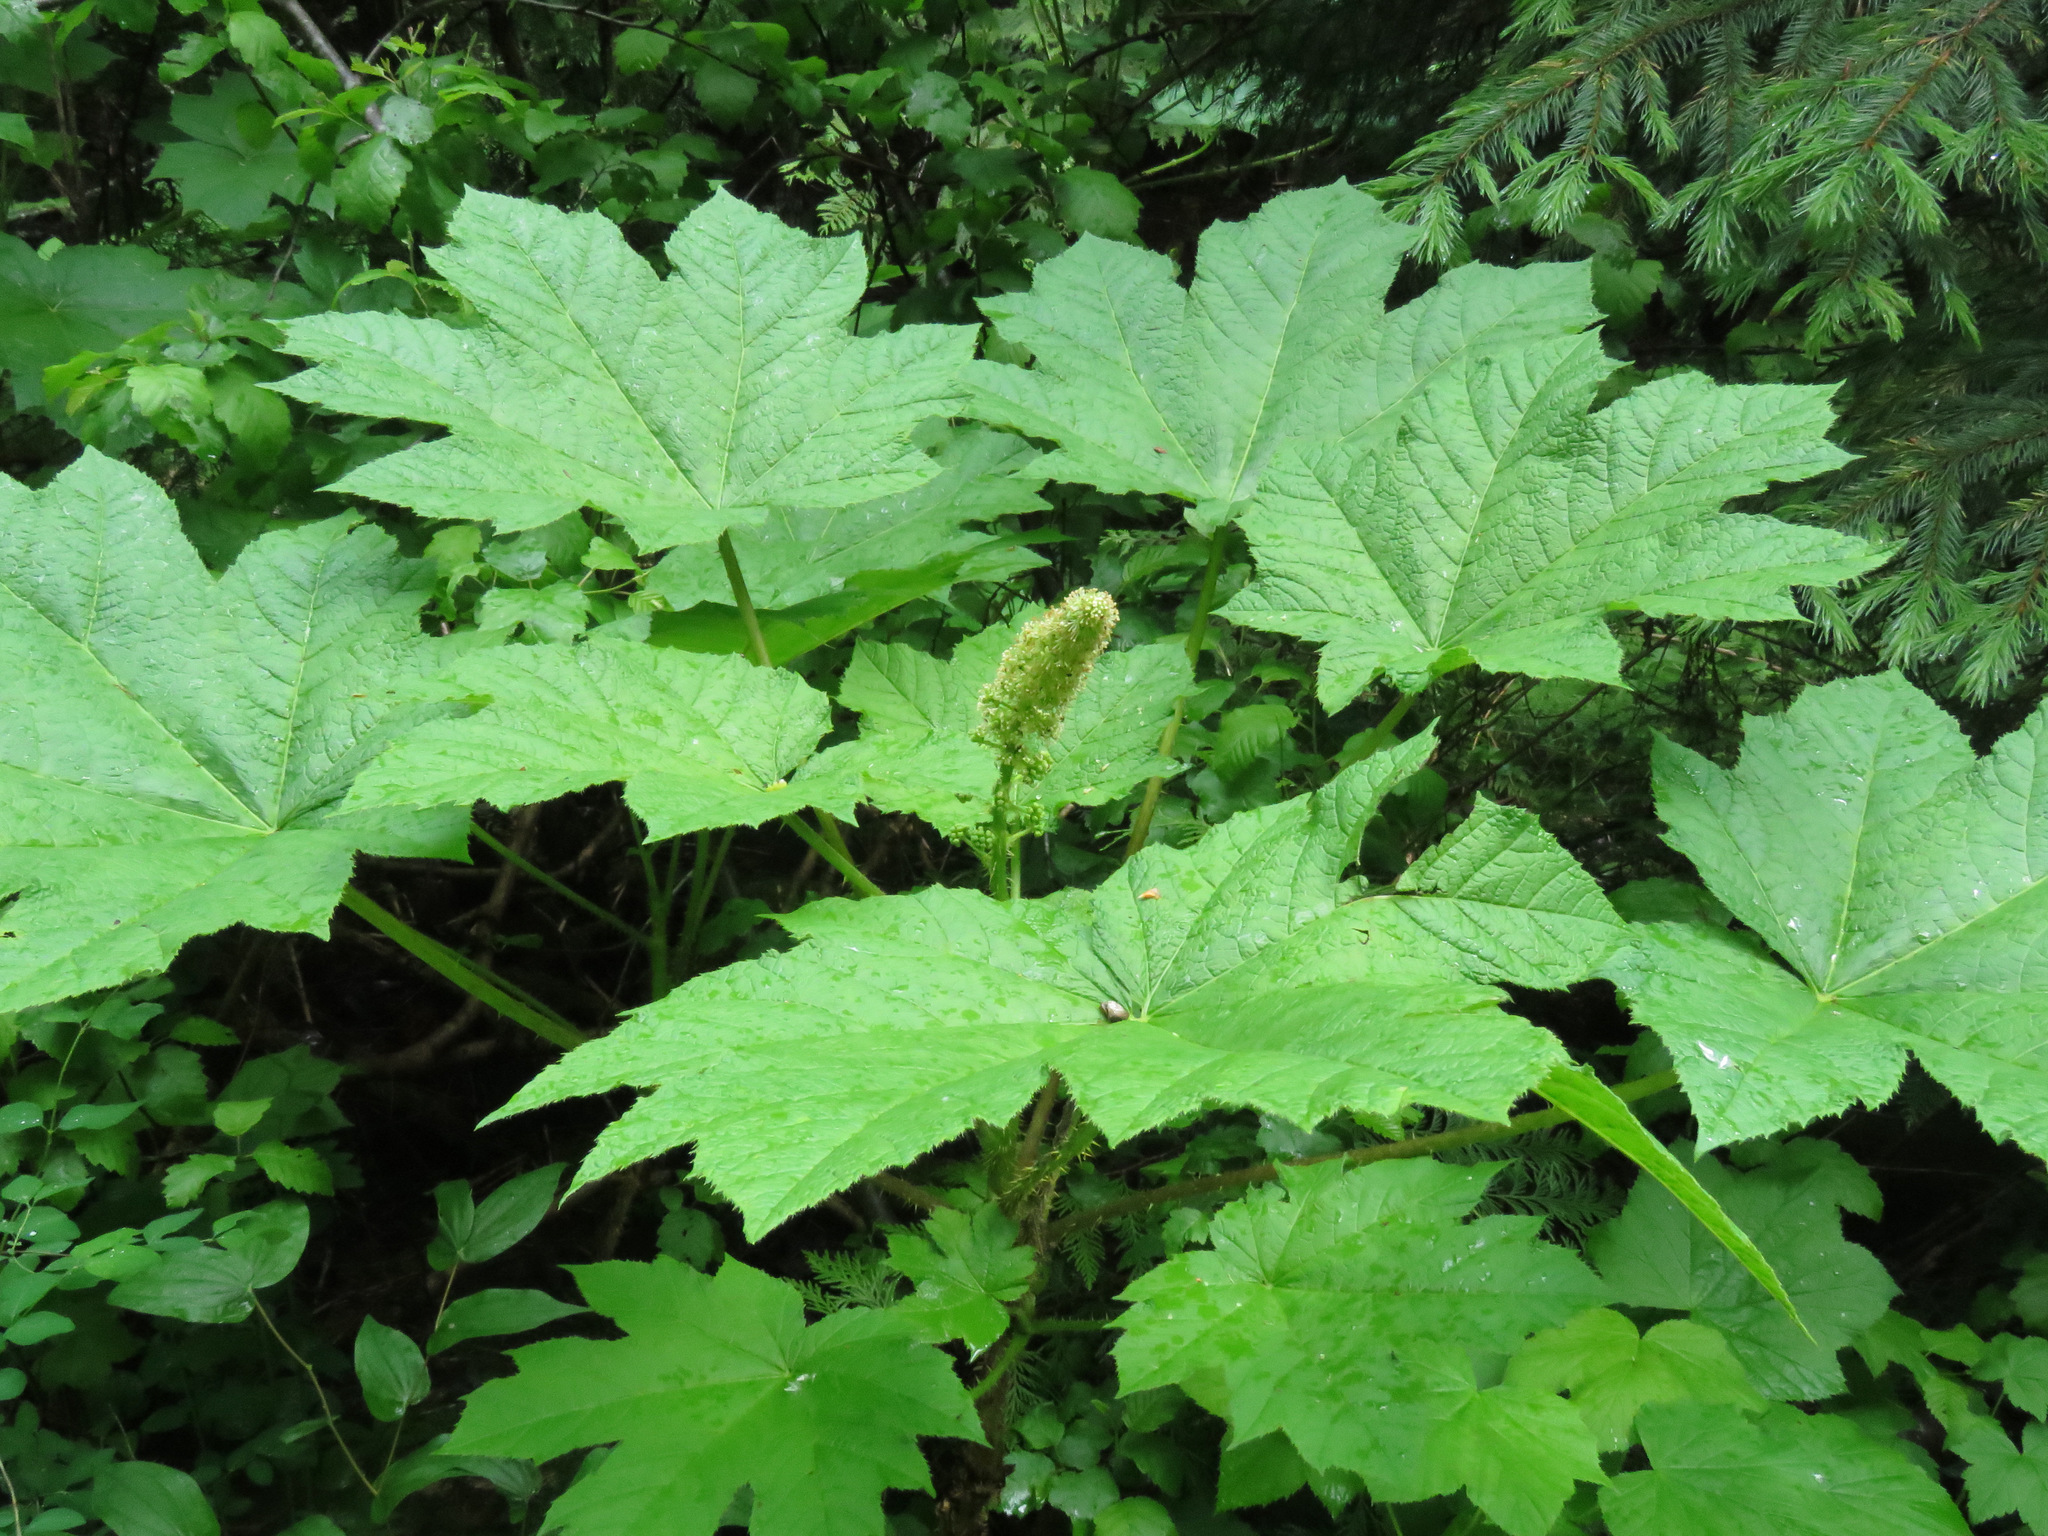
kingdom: Plantae
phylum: Tracheophyta
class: Magnoliopsida
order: Apiales
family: Araliaceae
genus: Oplopanax
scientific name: Oplopanax horridus
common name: Devil's walking-stick
